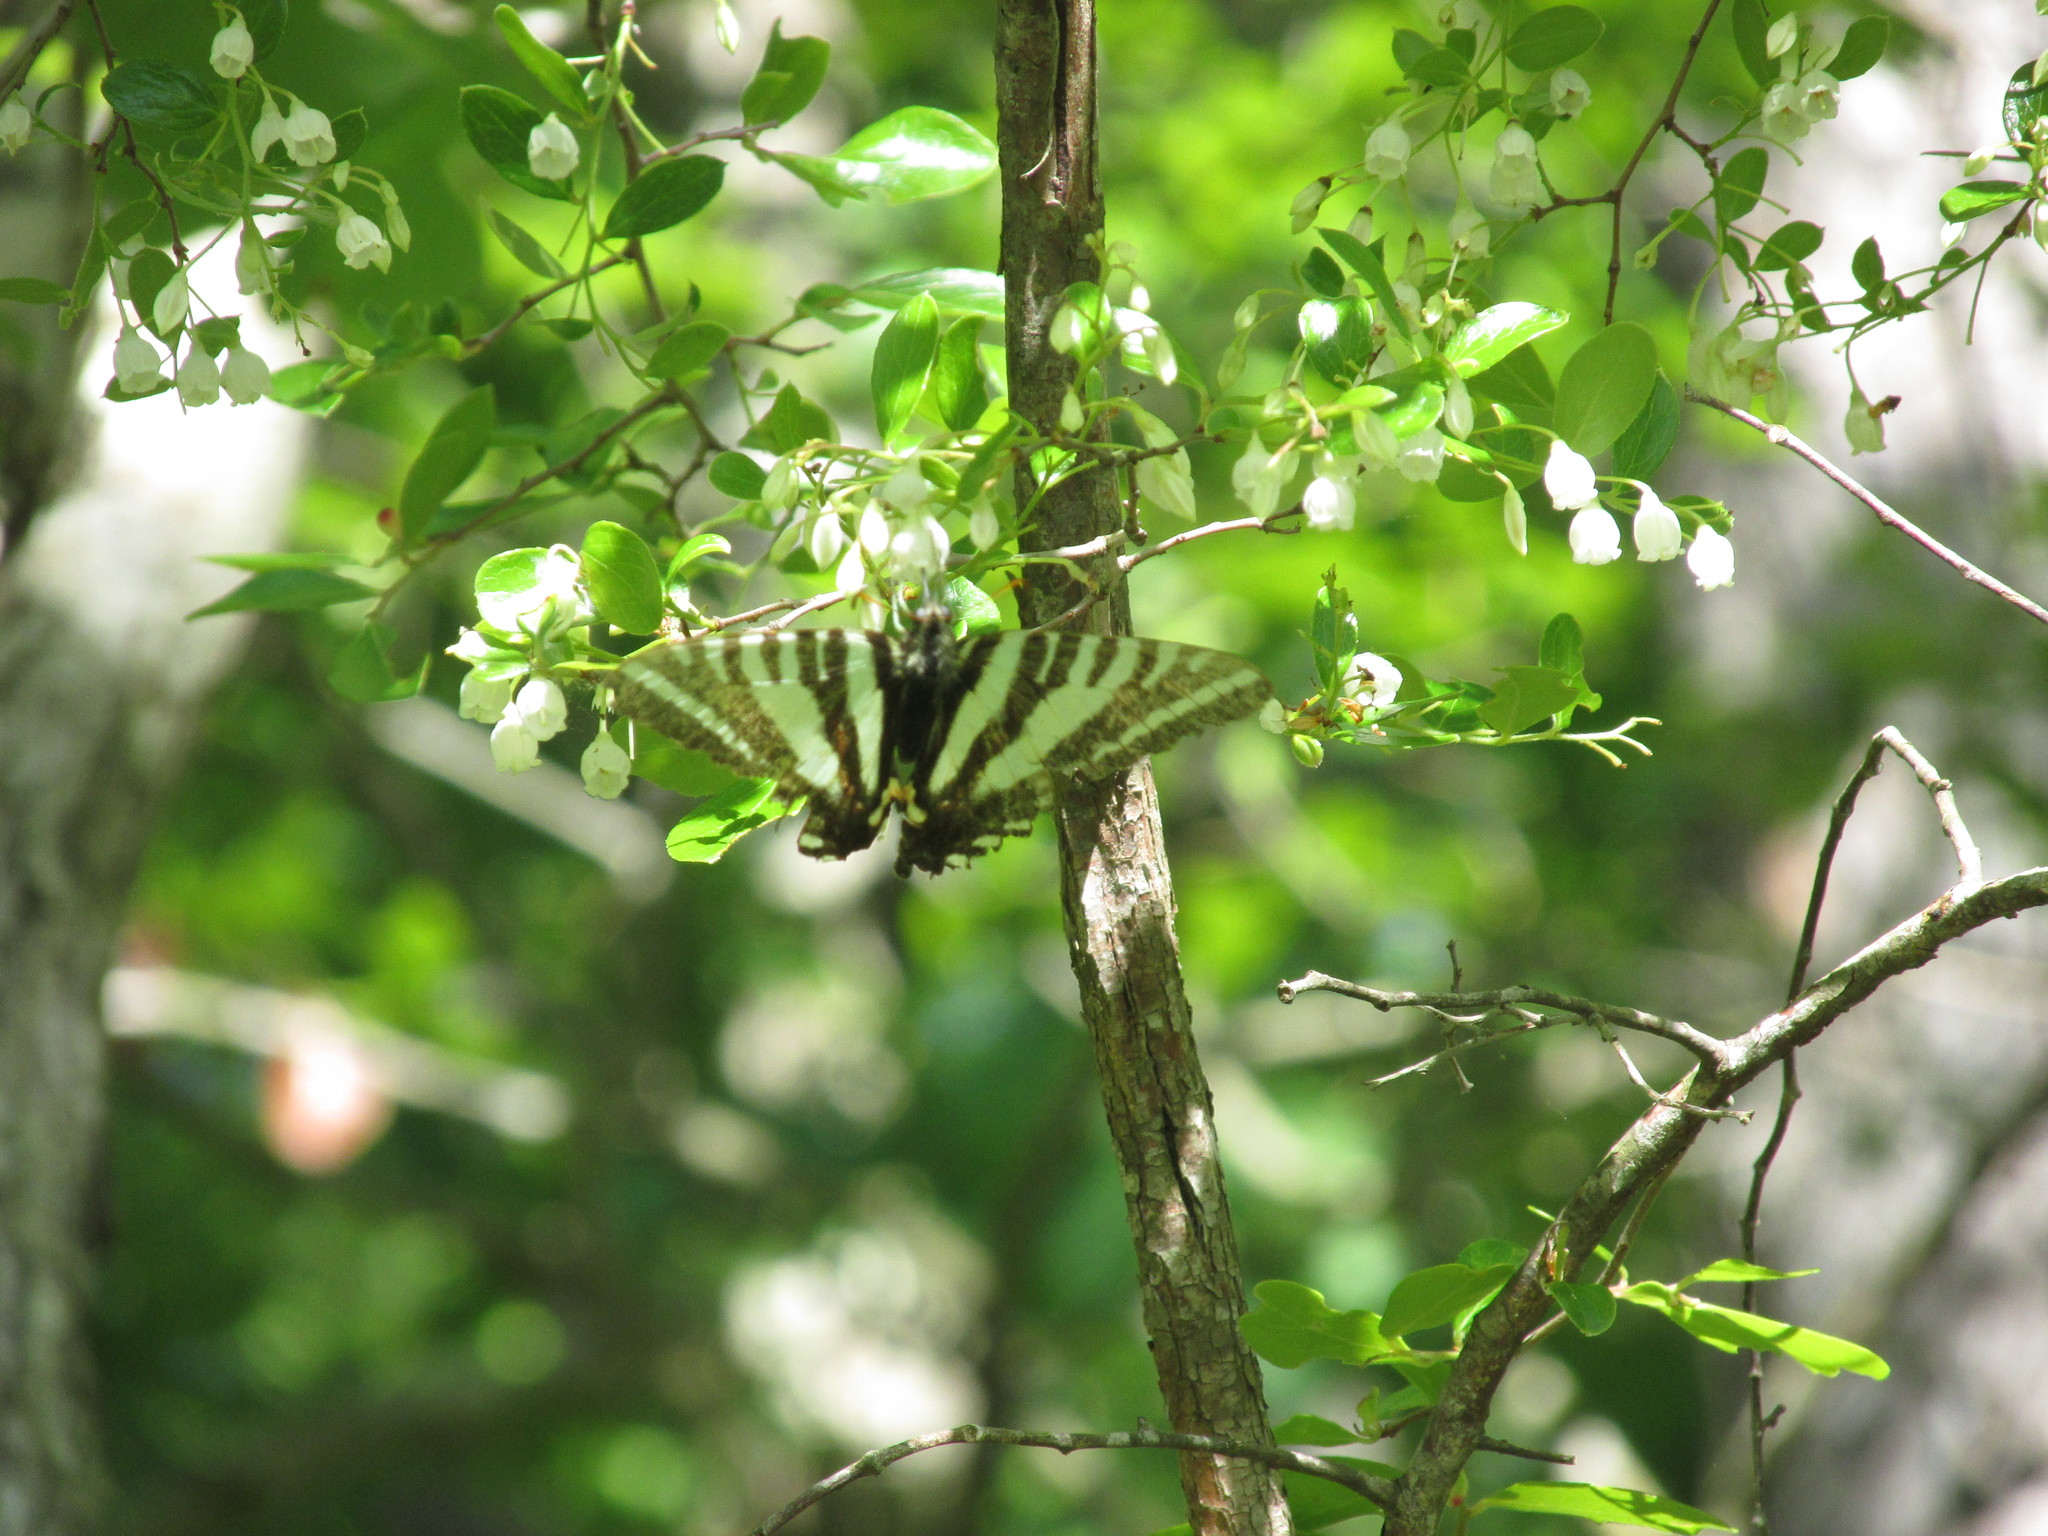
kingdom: Animalia
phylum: Arthropoda
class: Insecta
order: Lepidoptera
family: Papilionidae
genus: Protographium
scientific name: Protographium marcellus
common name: Zebra swallowtail
